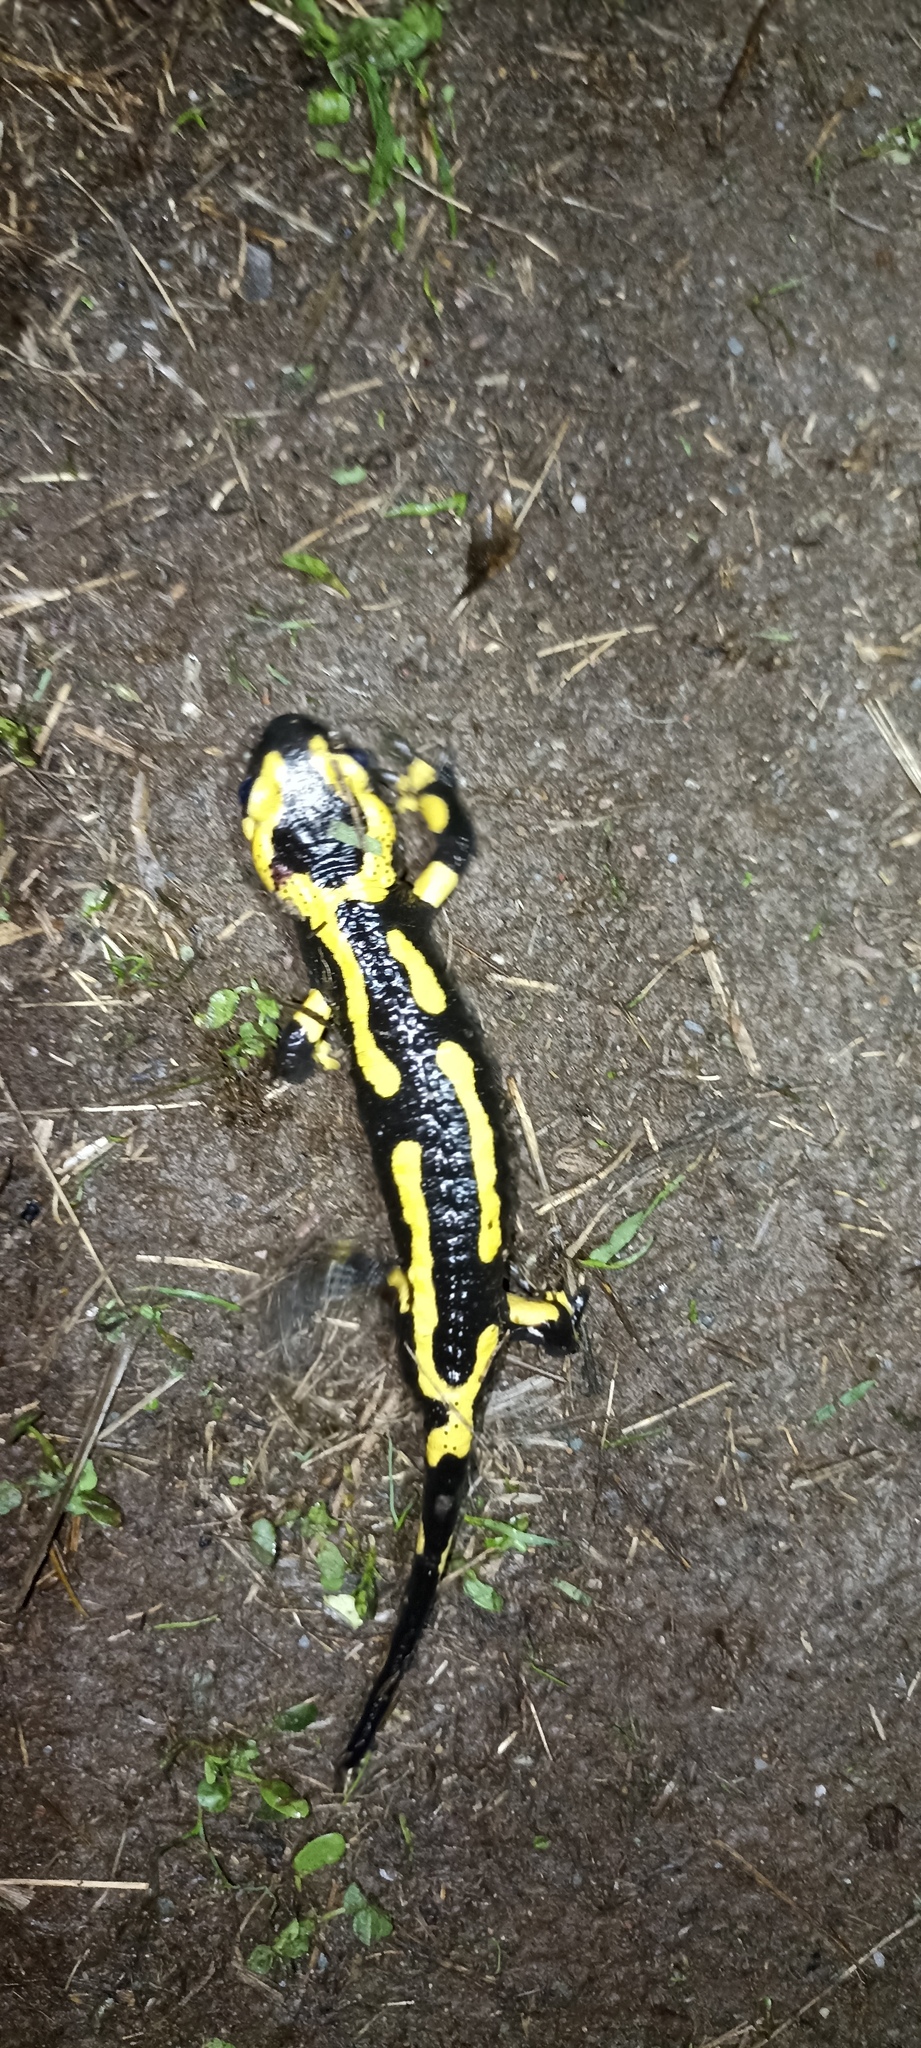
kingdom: Animalia
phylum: Chordata
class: Amphibia
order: Caudata
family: Salamandridae
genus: Salamandra
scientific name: Salamandra salamandra
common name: Fire salamander
